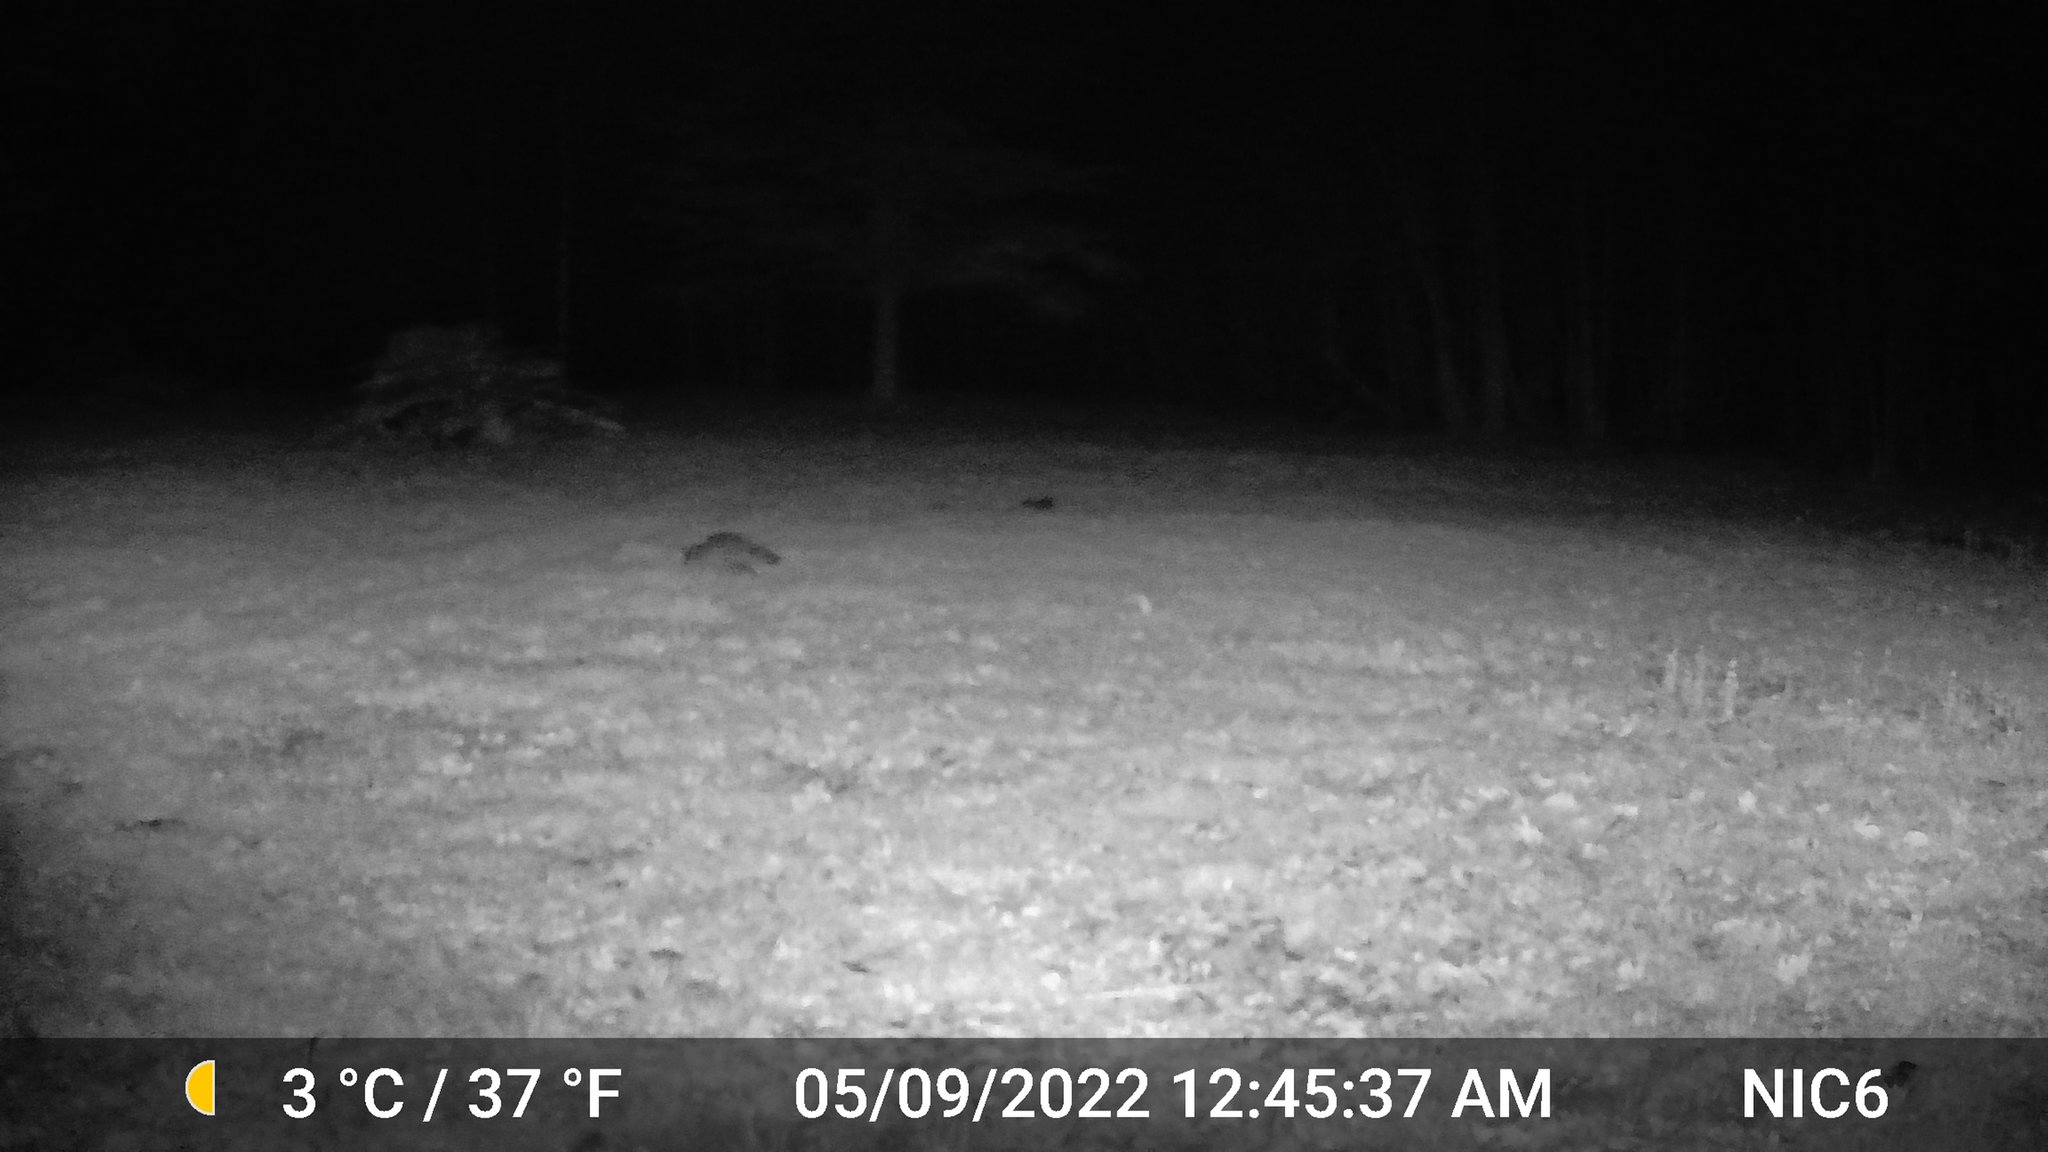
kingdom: Animalia
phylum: Chordata
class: Mammalia
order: Carnivora
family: Procyonidae
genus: Procyon
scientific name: Procyon lotor
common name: Raccoon
